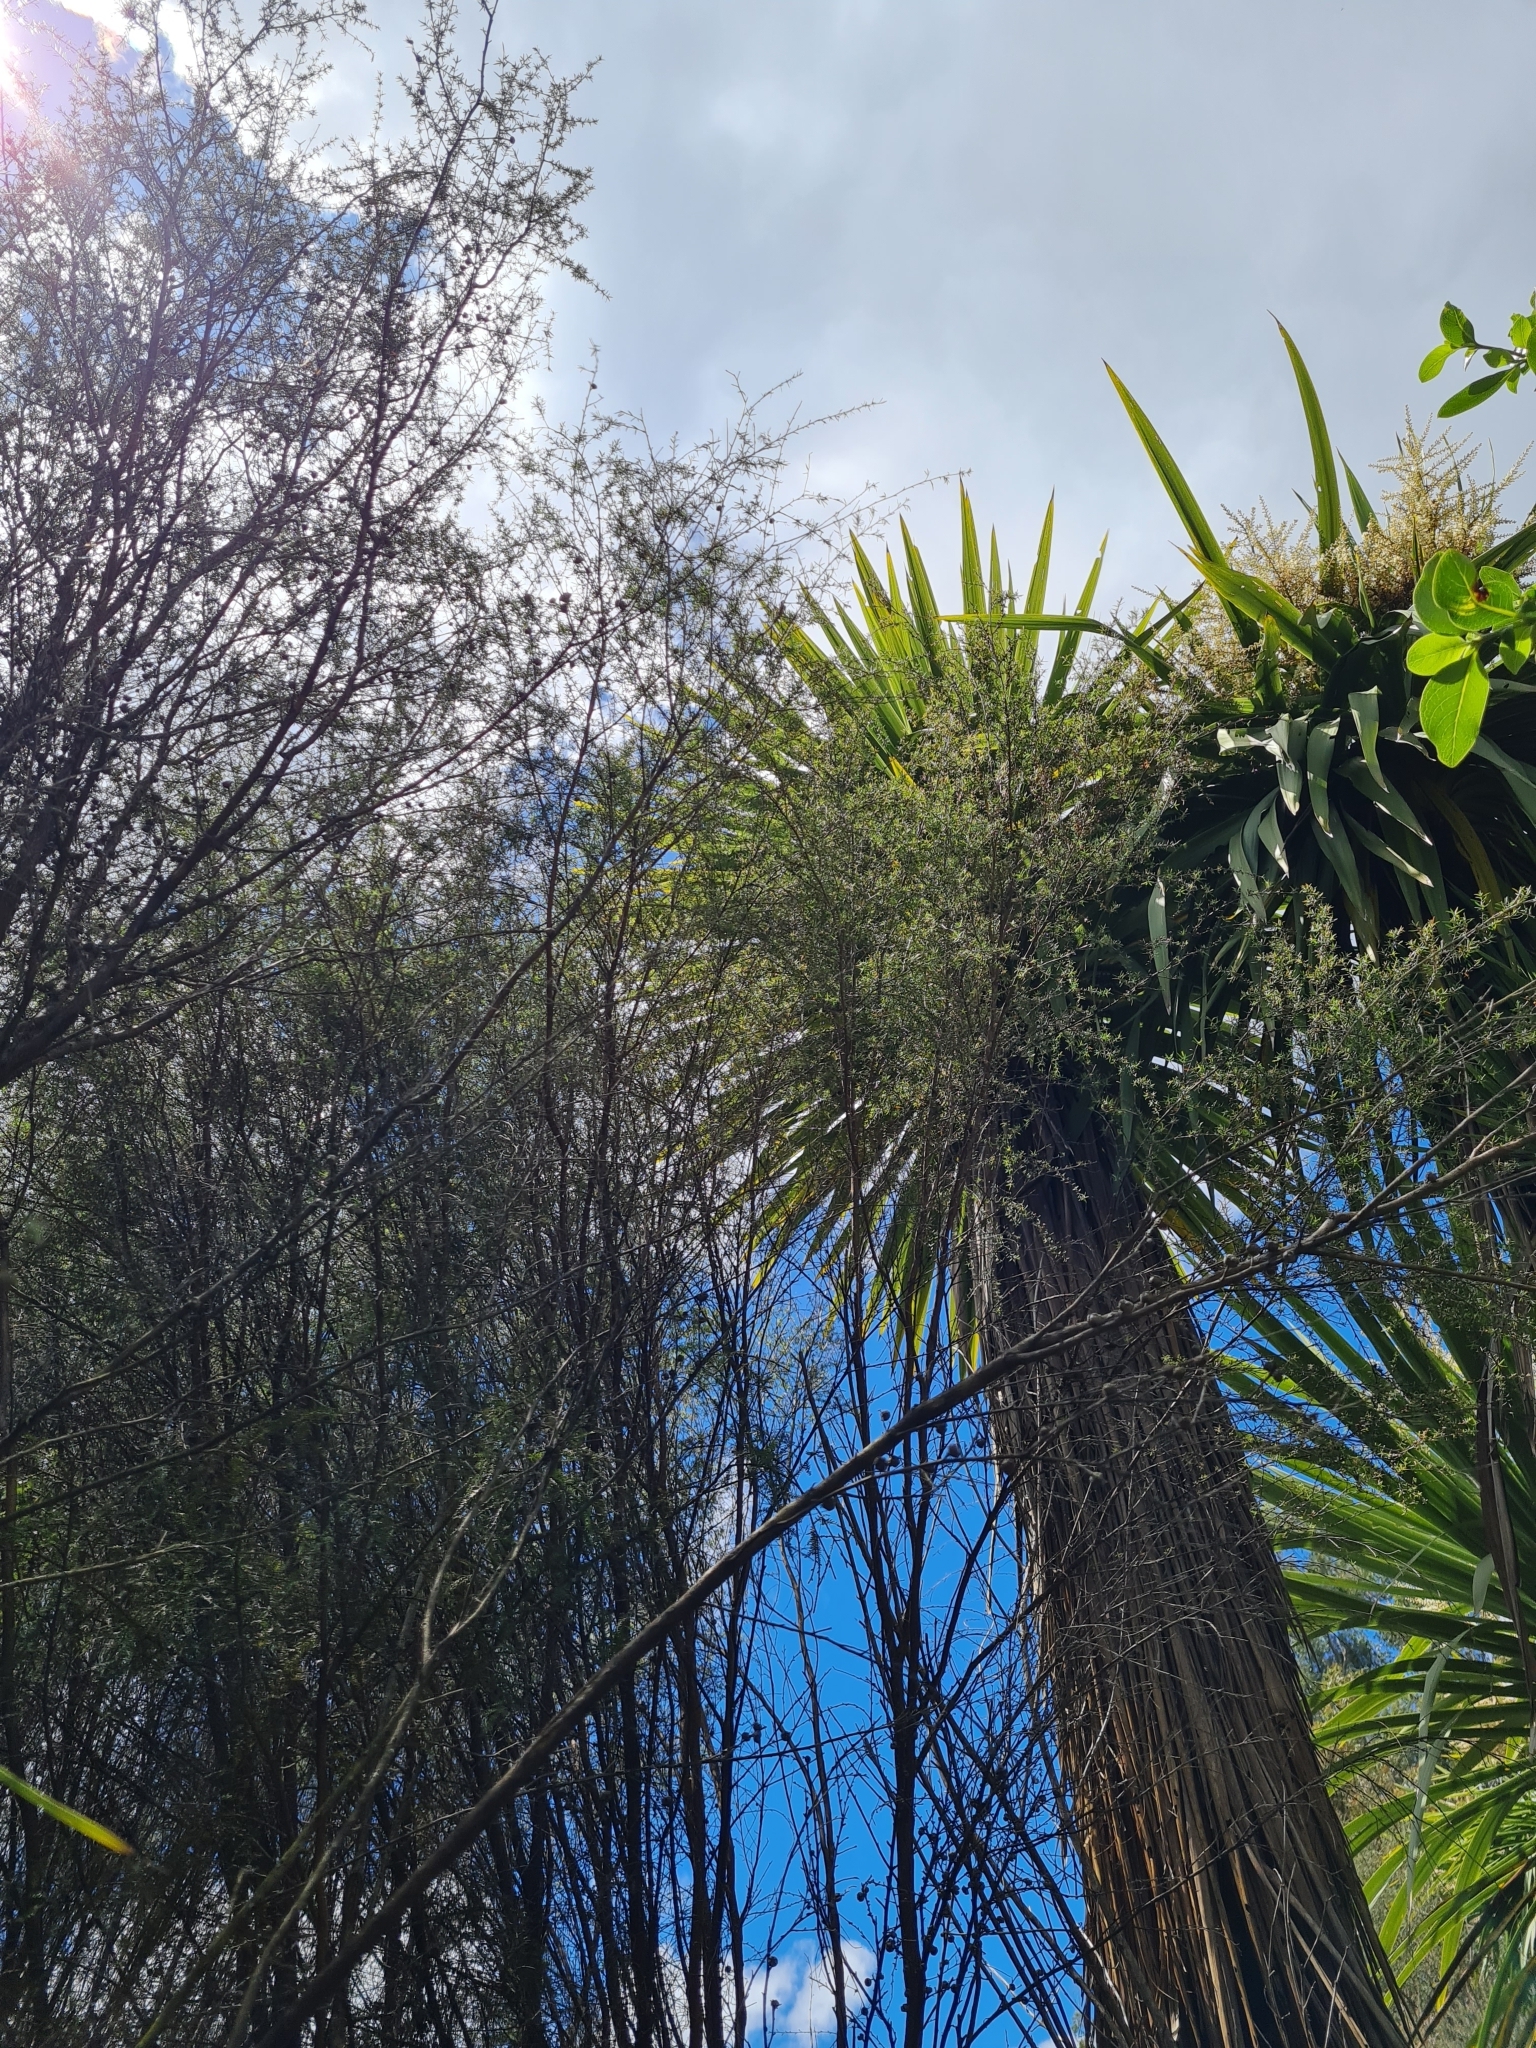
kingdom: Plantae
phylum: Tracheophyta
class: Magnoliopsida
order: Myrtales
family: Myrtaceae
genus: Leptospermum
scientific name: Leptospermum scoparium
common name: Broom tea-tree
